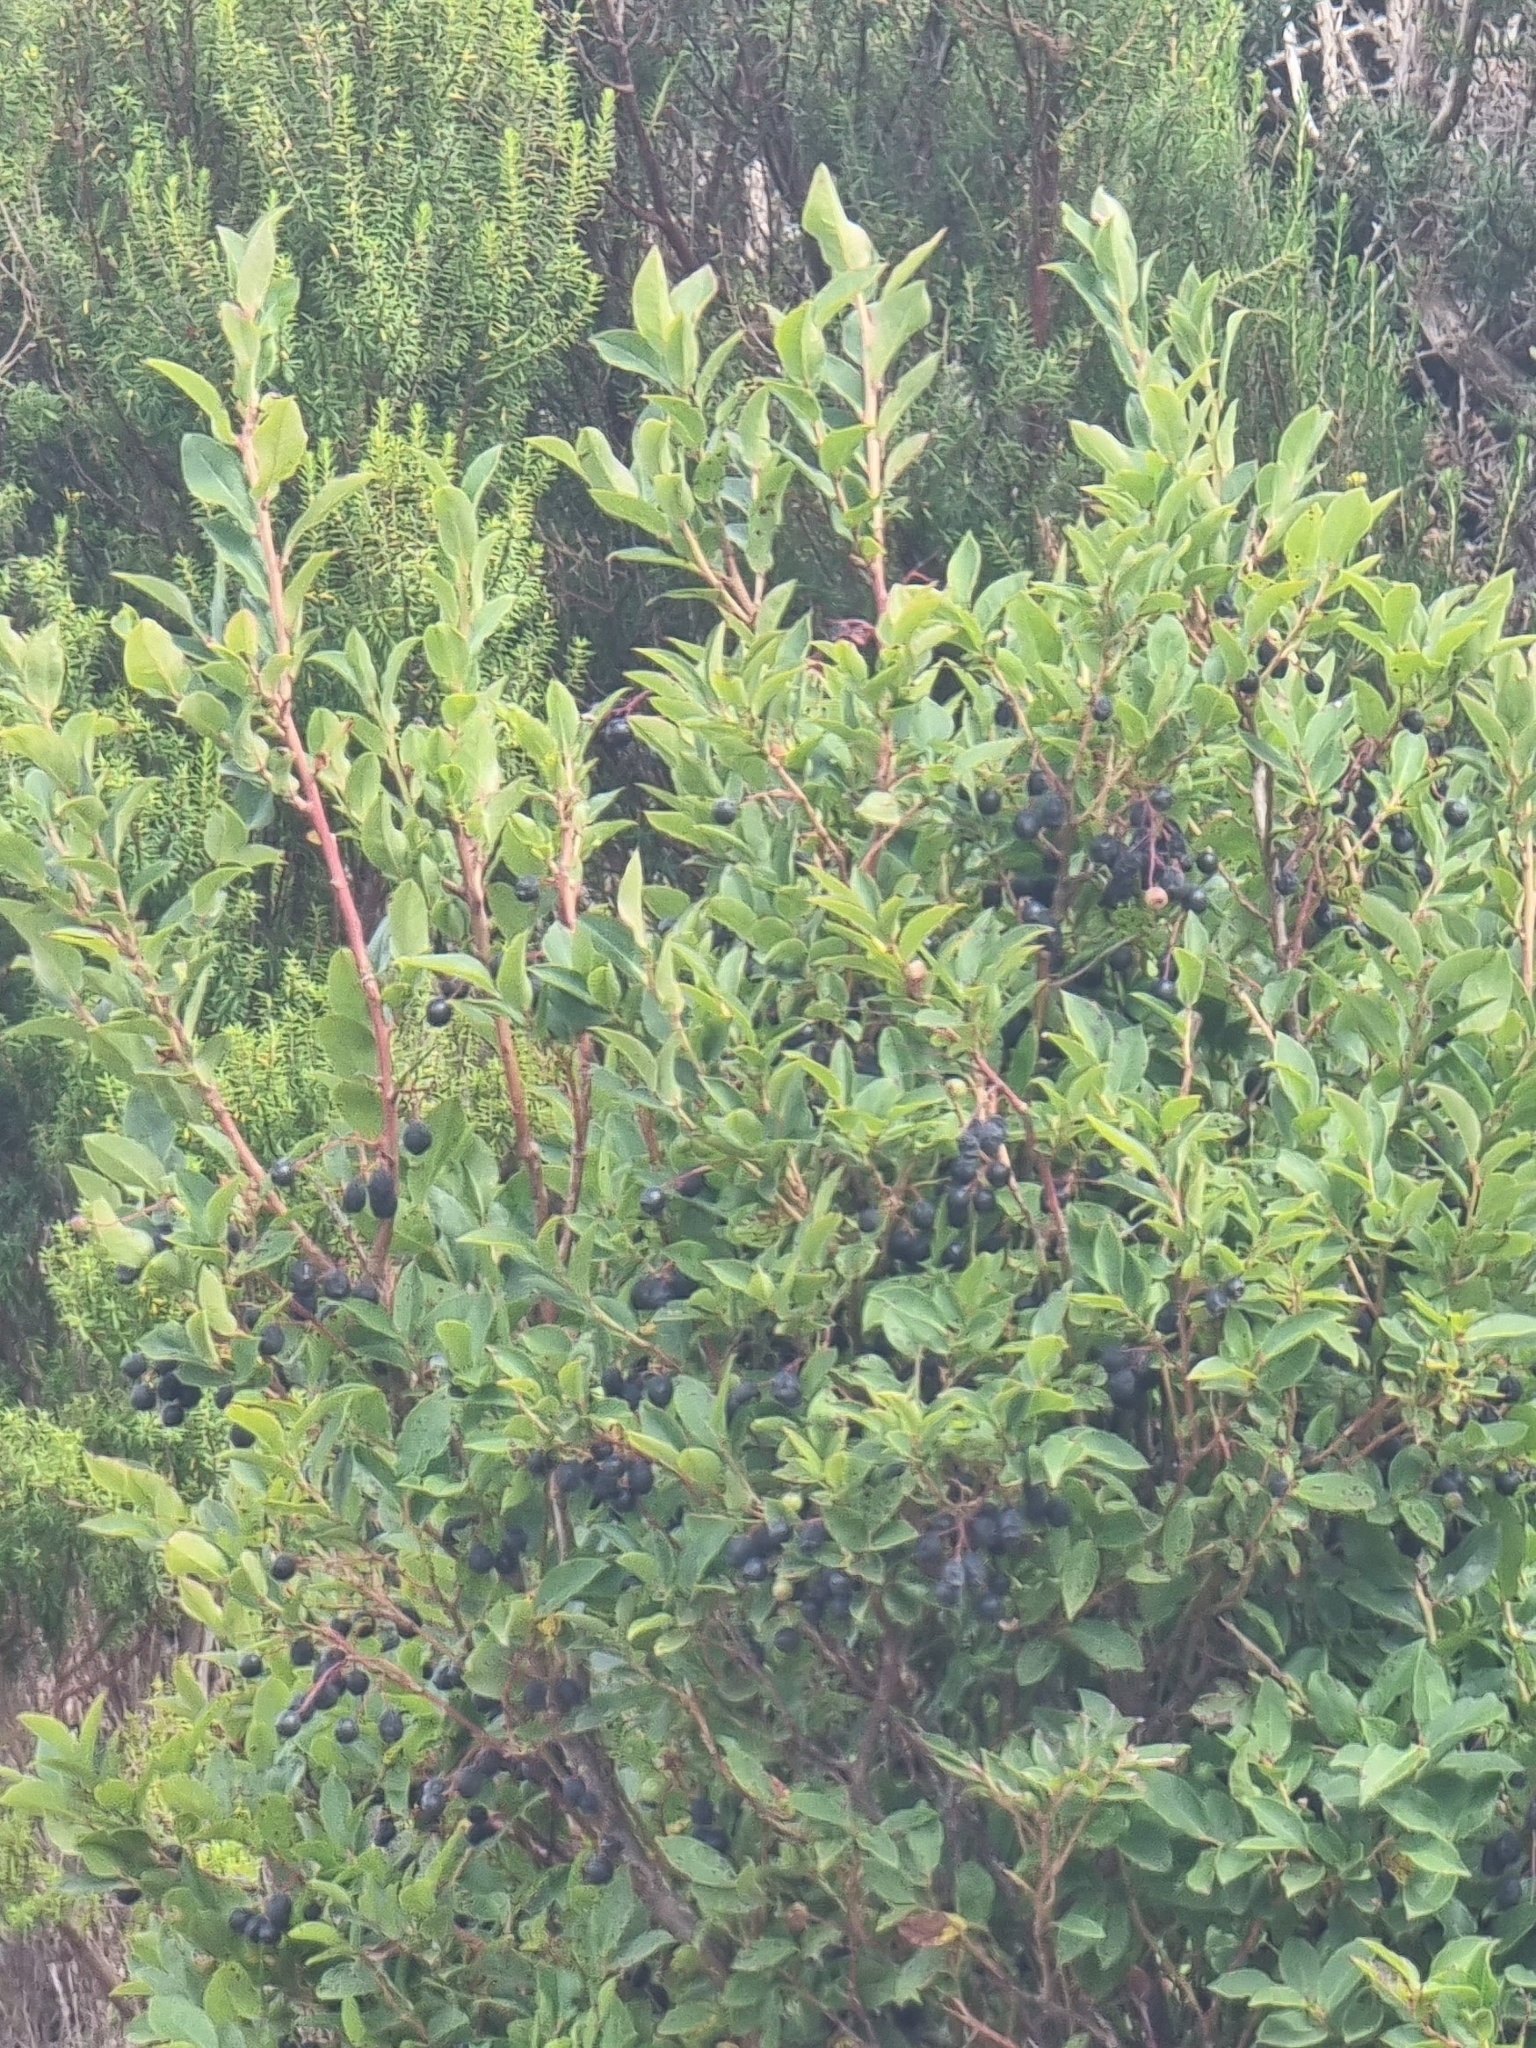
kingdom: Plantae
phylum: Tracheophyta
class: Magnoliopsida
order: Ericales
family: Ericaceae
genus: Vaccinium
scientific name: Vaccinium padifolium
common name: Madeiran blueberry
